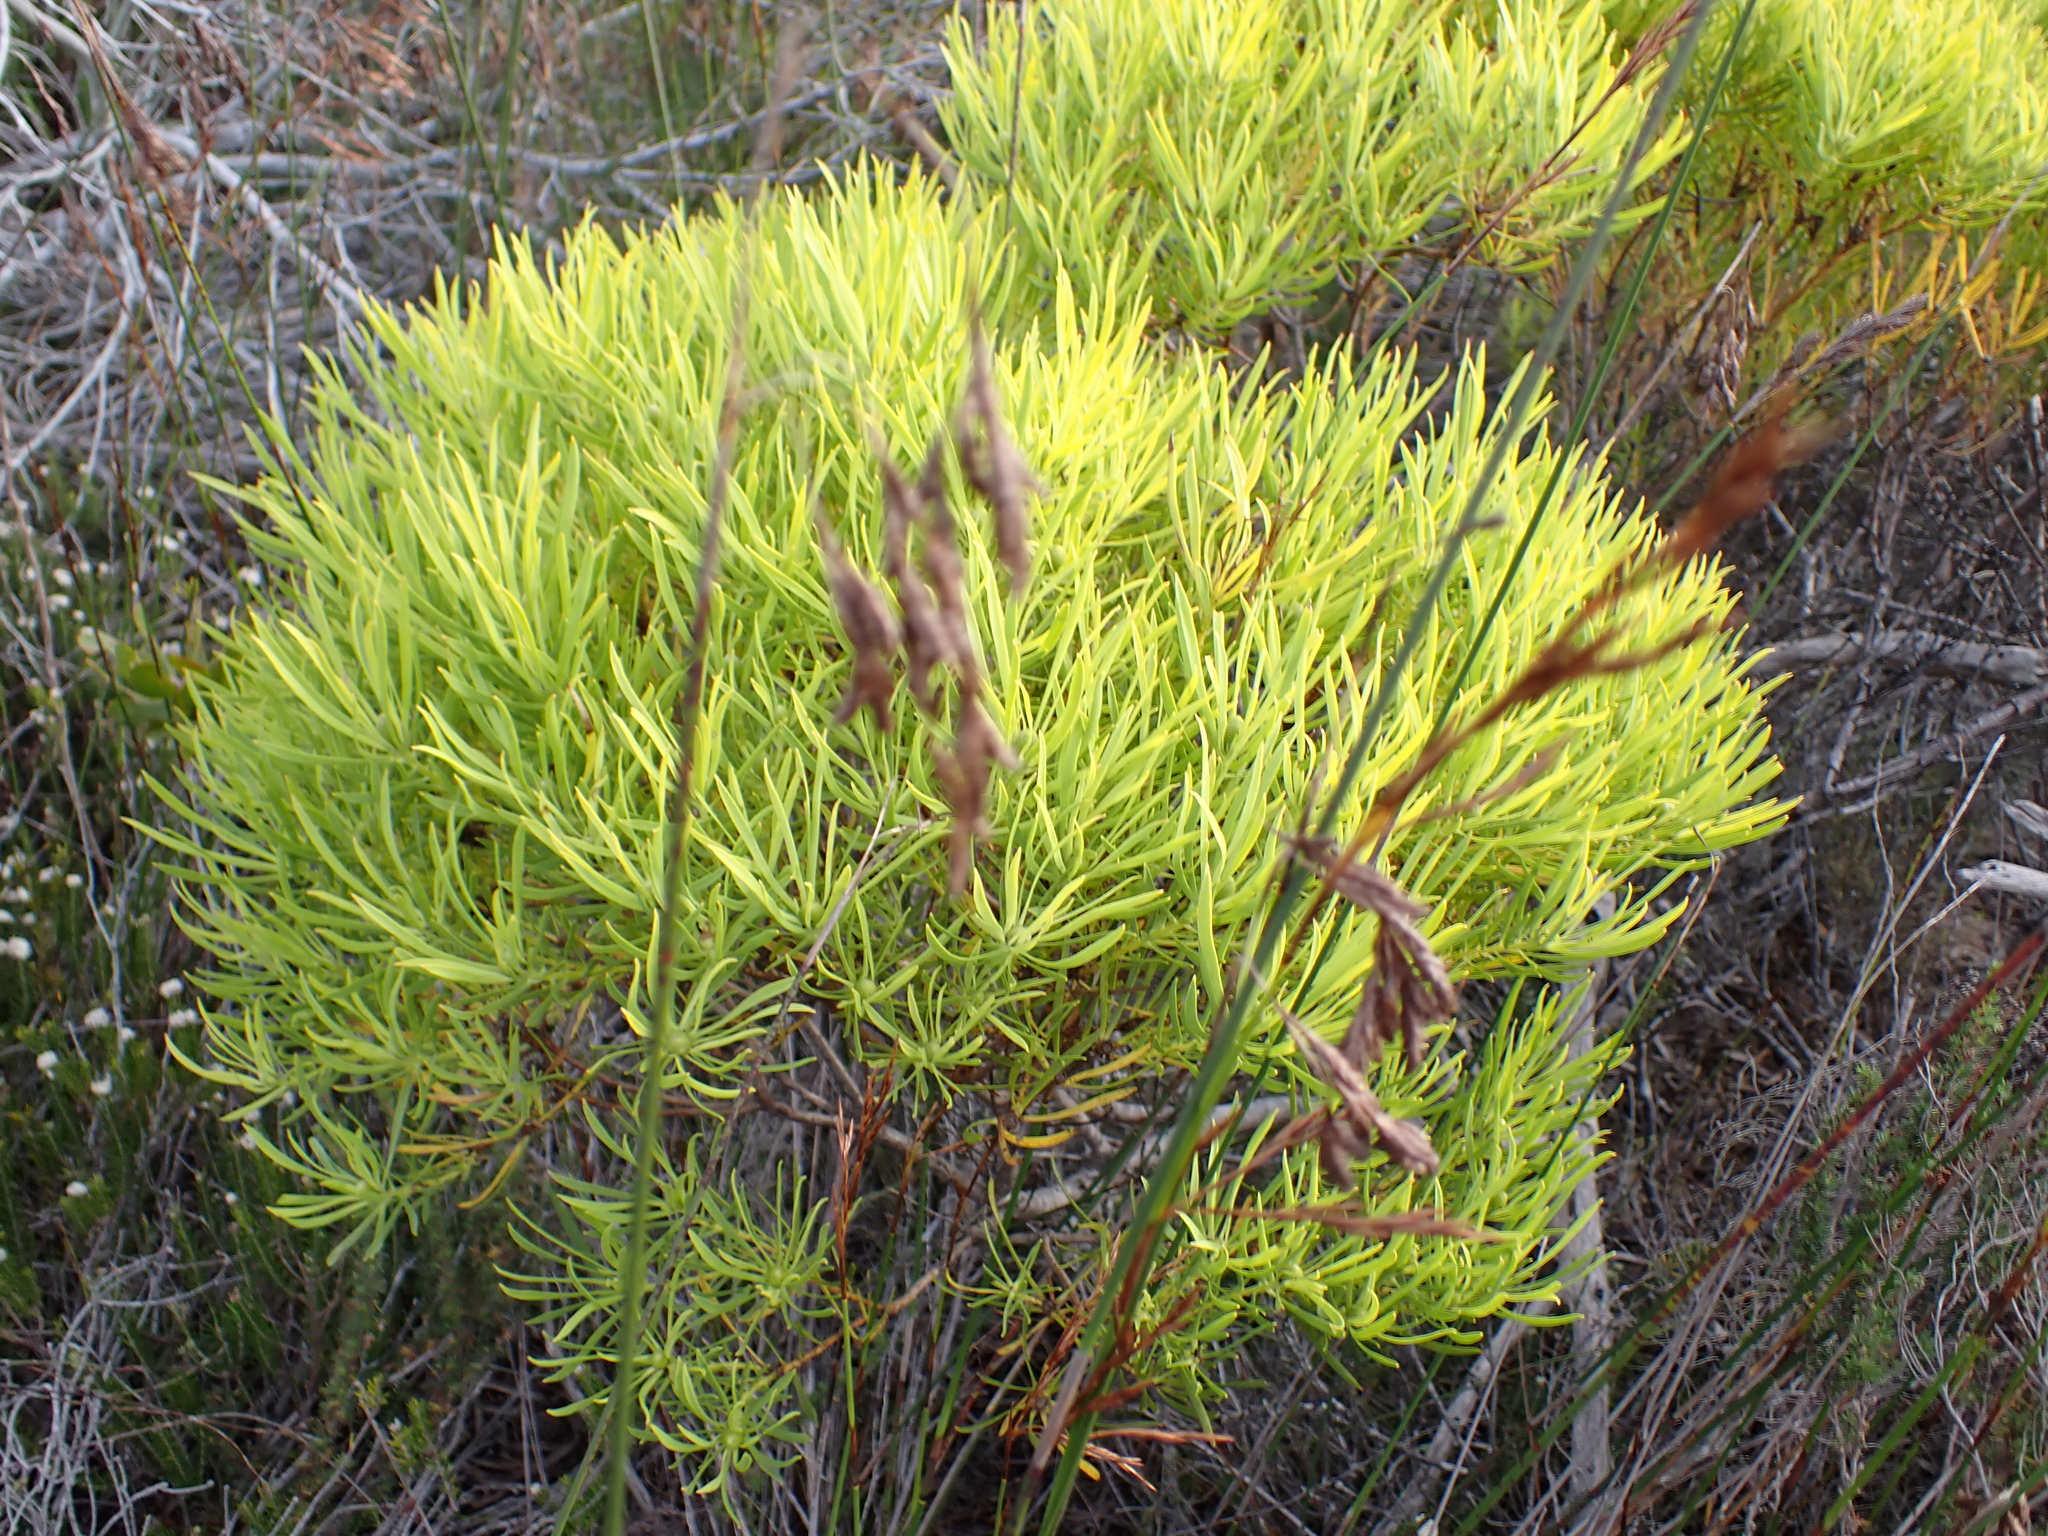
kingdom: Plantae
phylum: Tracheophyta
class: Magnoliopsida
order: Proteales
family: Proteaceae
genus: Leucadendron
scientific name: Leucadendron salignum
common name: Common sunshine conebush
